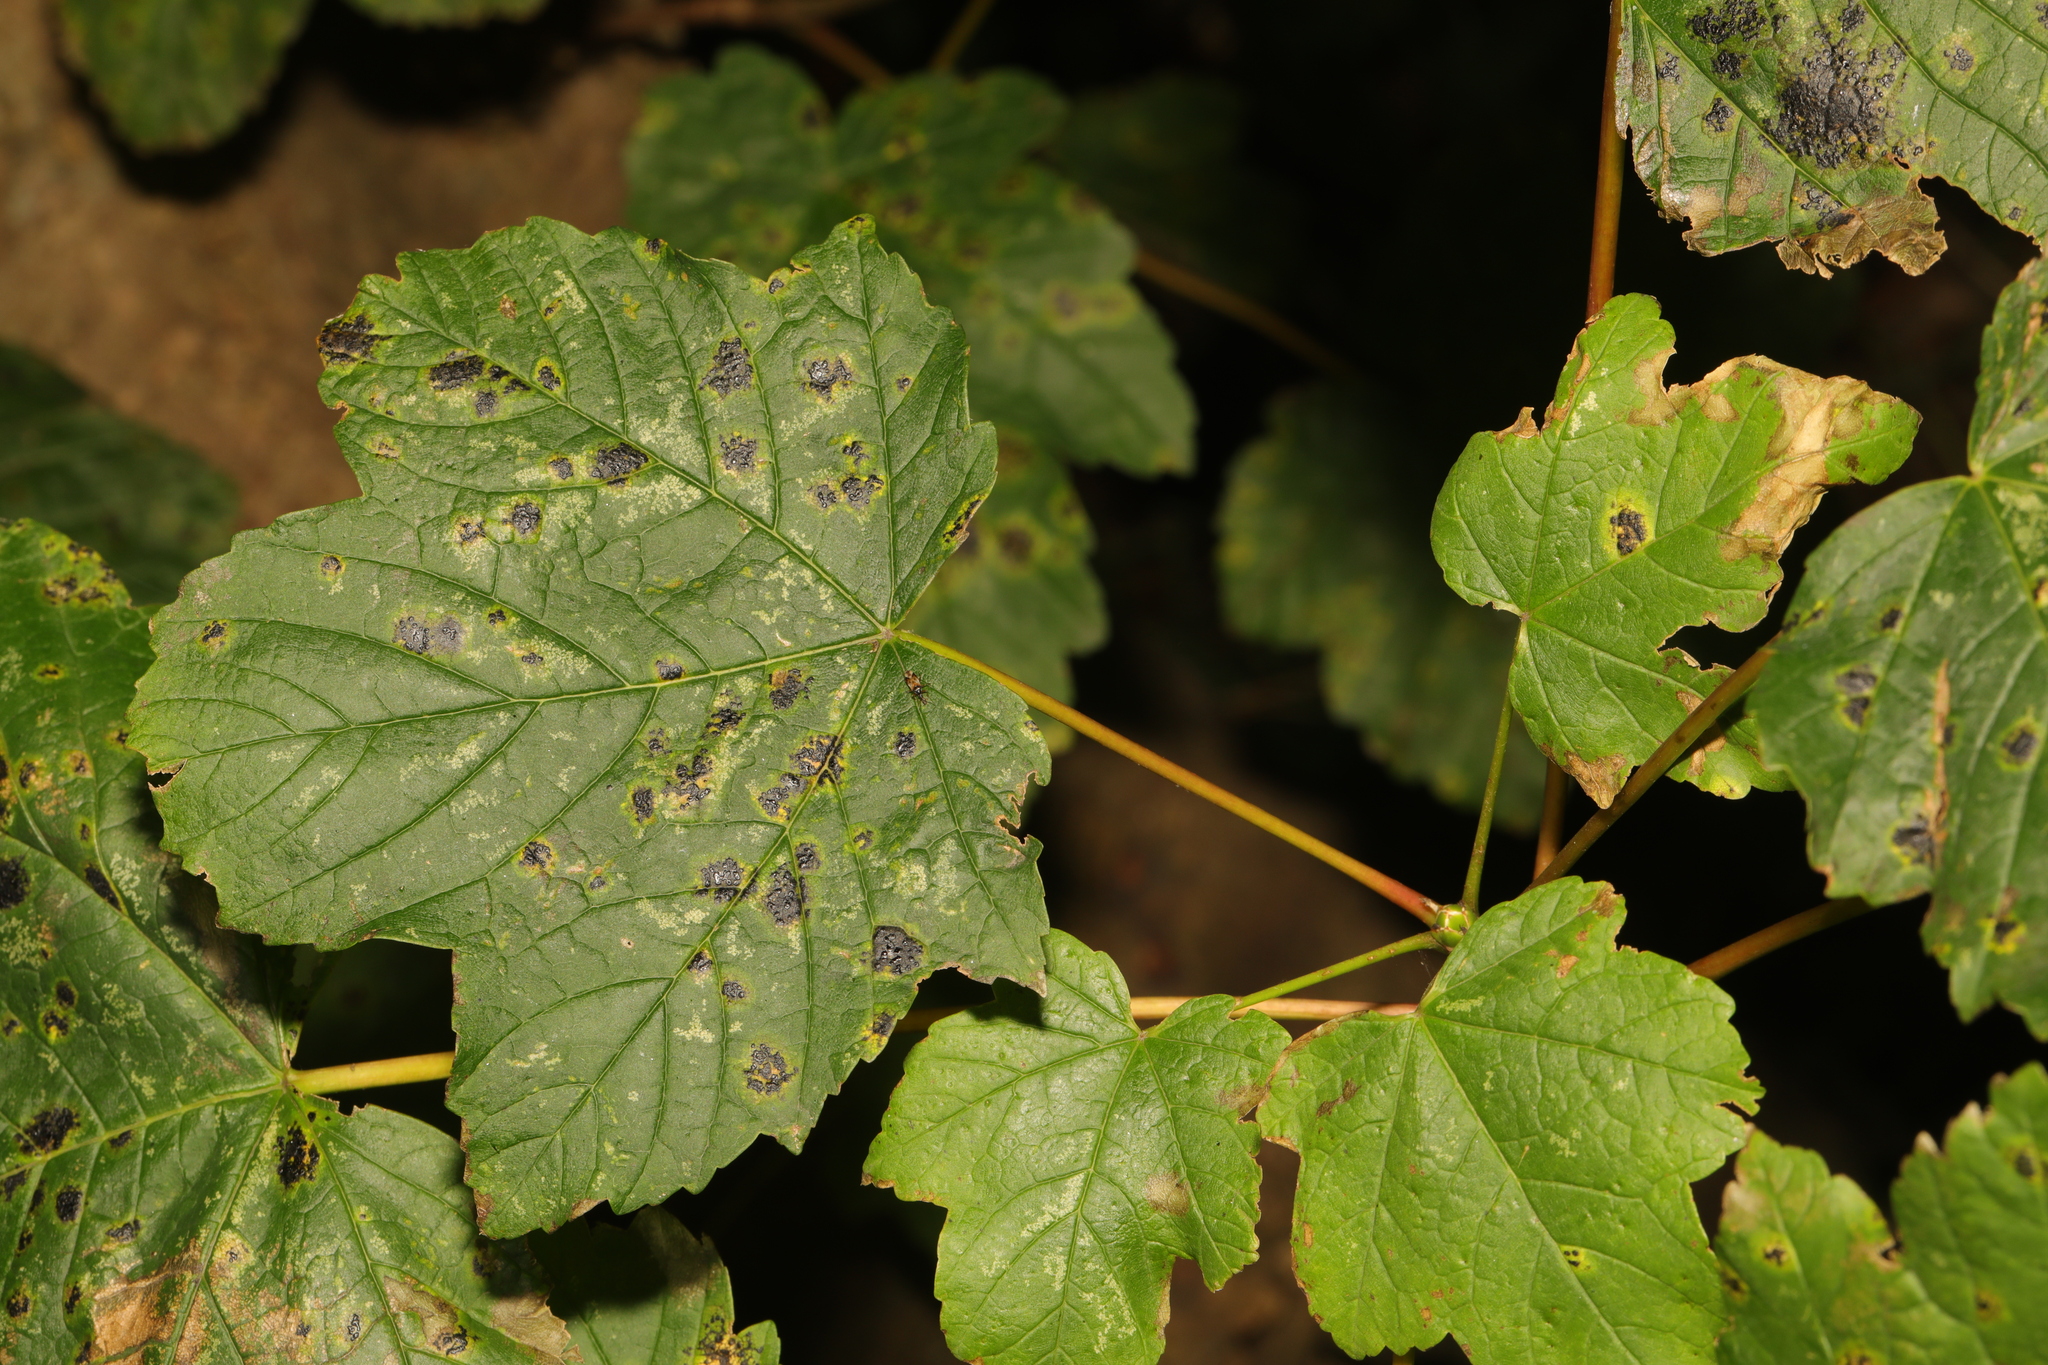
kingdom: Plantae
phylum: Tracheophyta
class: Magnoliopsida
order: Sapindales
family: Sapindaceae
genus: Acer
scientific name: Acer pseudoplatanus
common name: Sycamore
